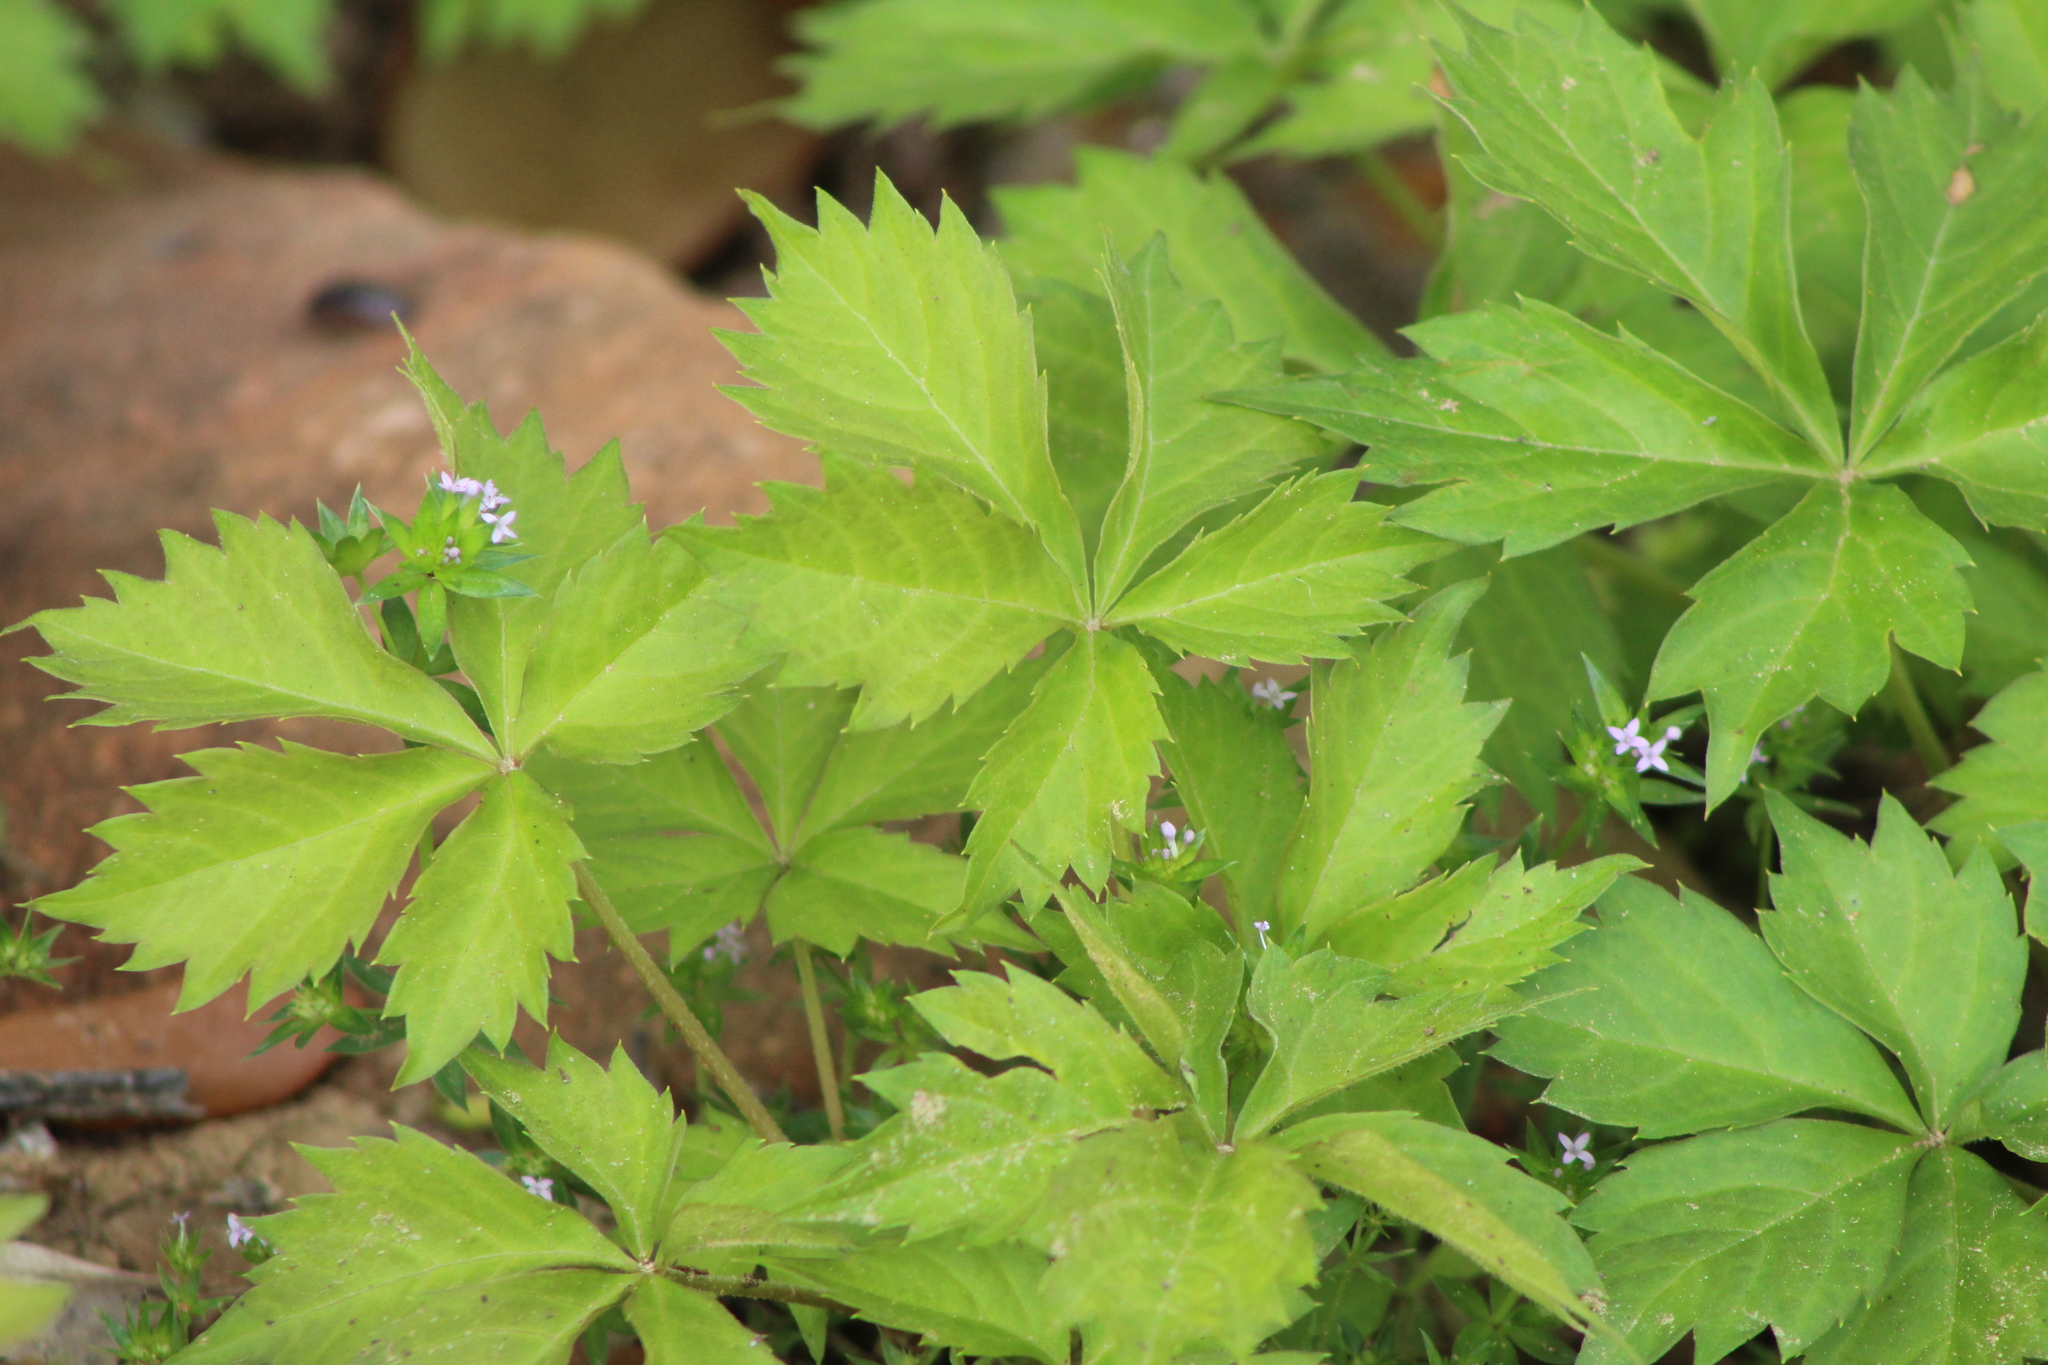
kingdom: Plantae
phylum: Tracheophyta
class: Magnoliopsida
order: Vitales
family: Vitaceae
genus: Parthenocissus
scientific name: Parthenocissus quinquefolia
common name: Virginia-creeper
